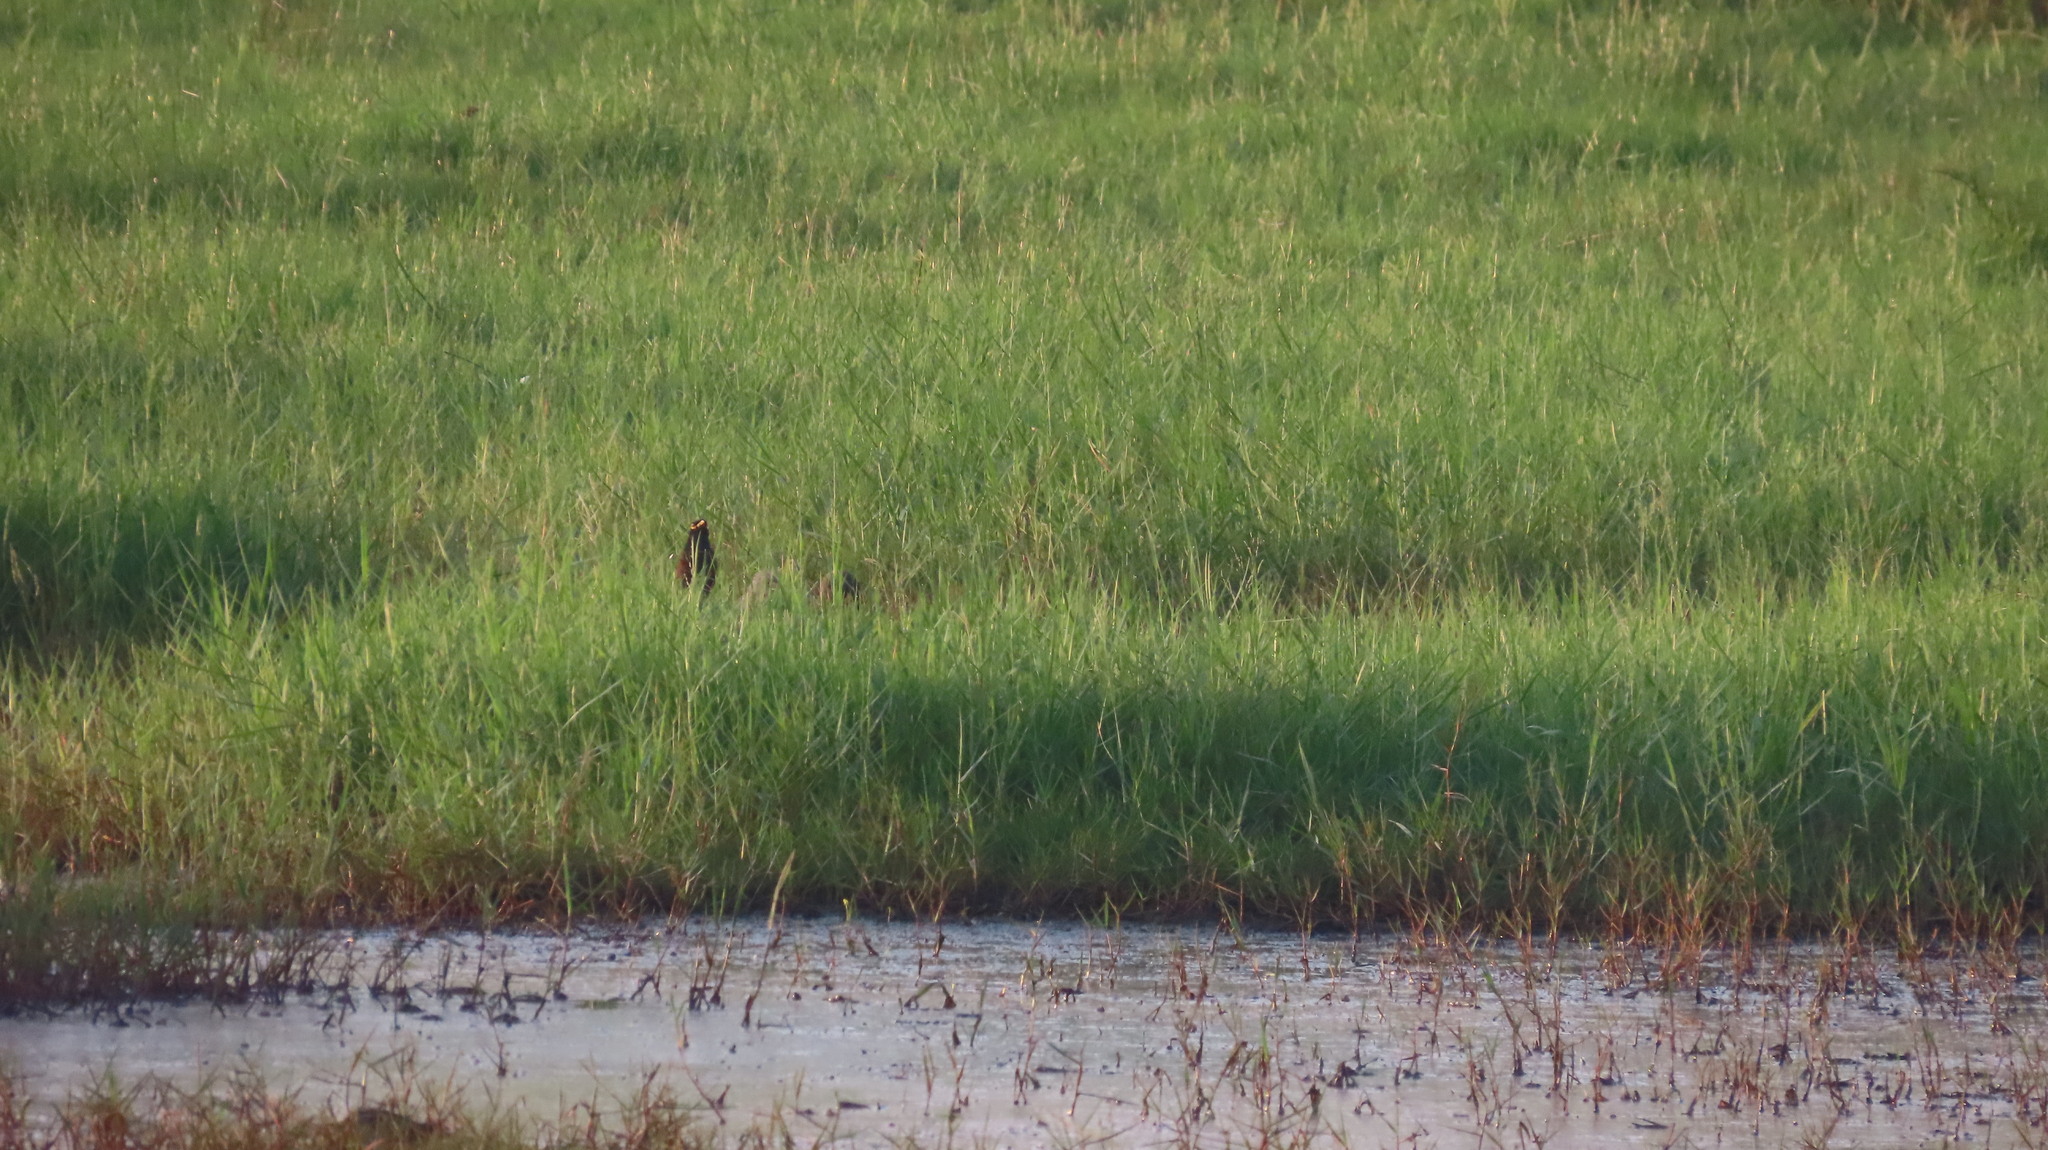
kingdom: Animalia
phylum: Chordata
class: Aves
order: Passeriformes
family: Sturnidae
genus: Acridotheres
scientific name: Acridotheres tristis
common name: Common myna
